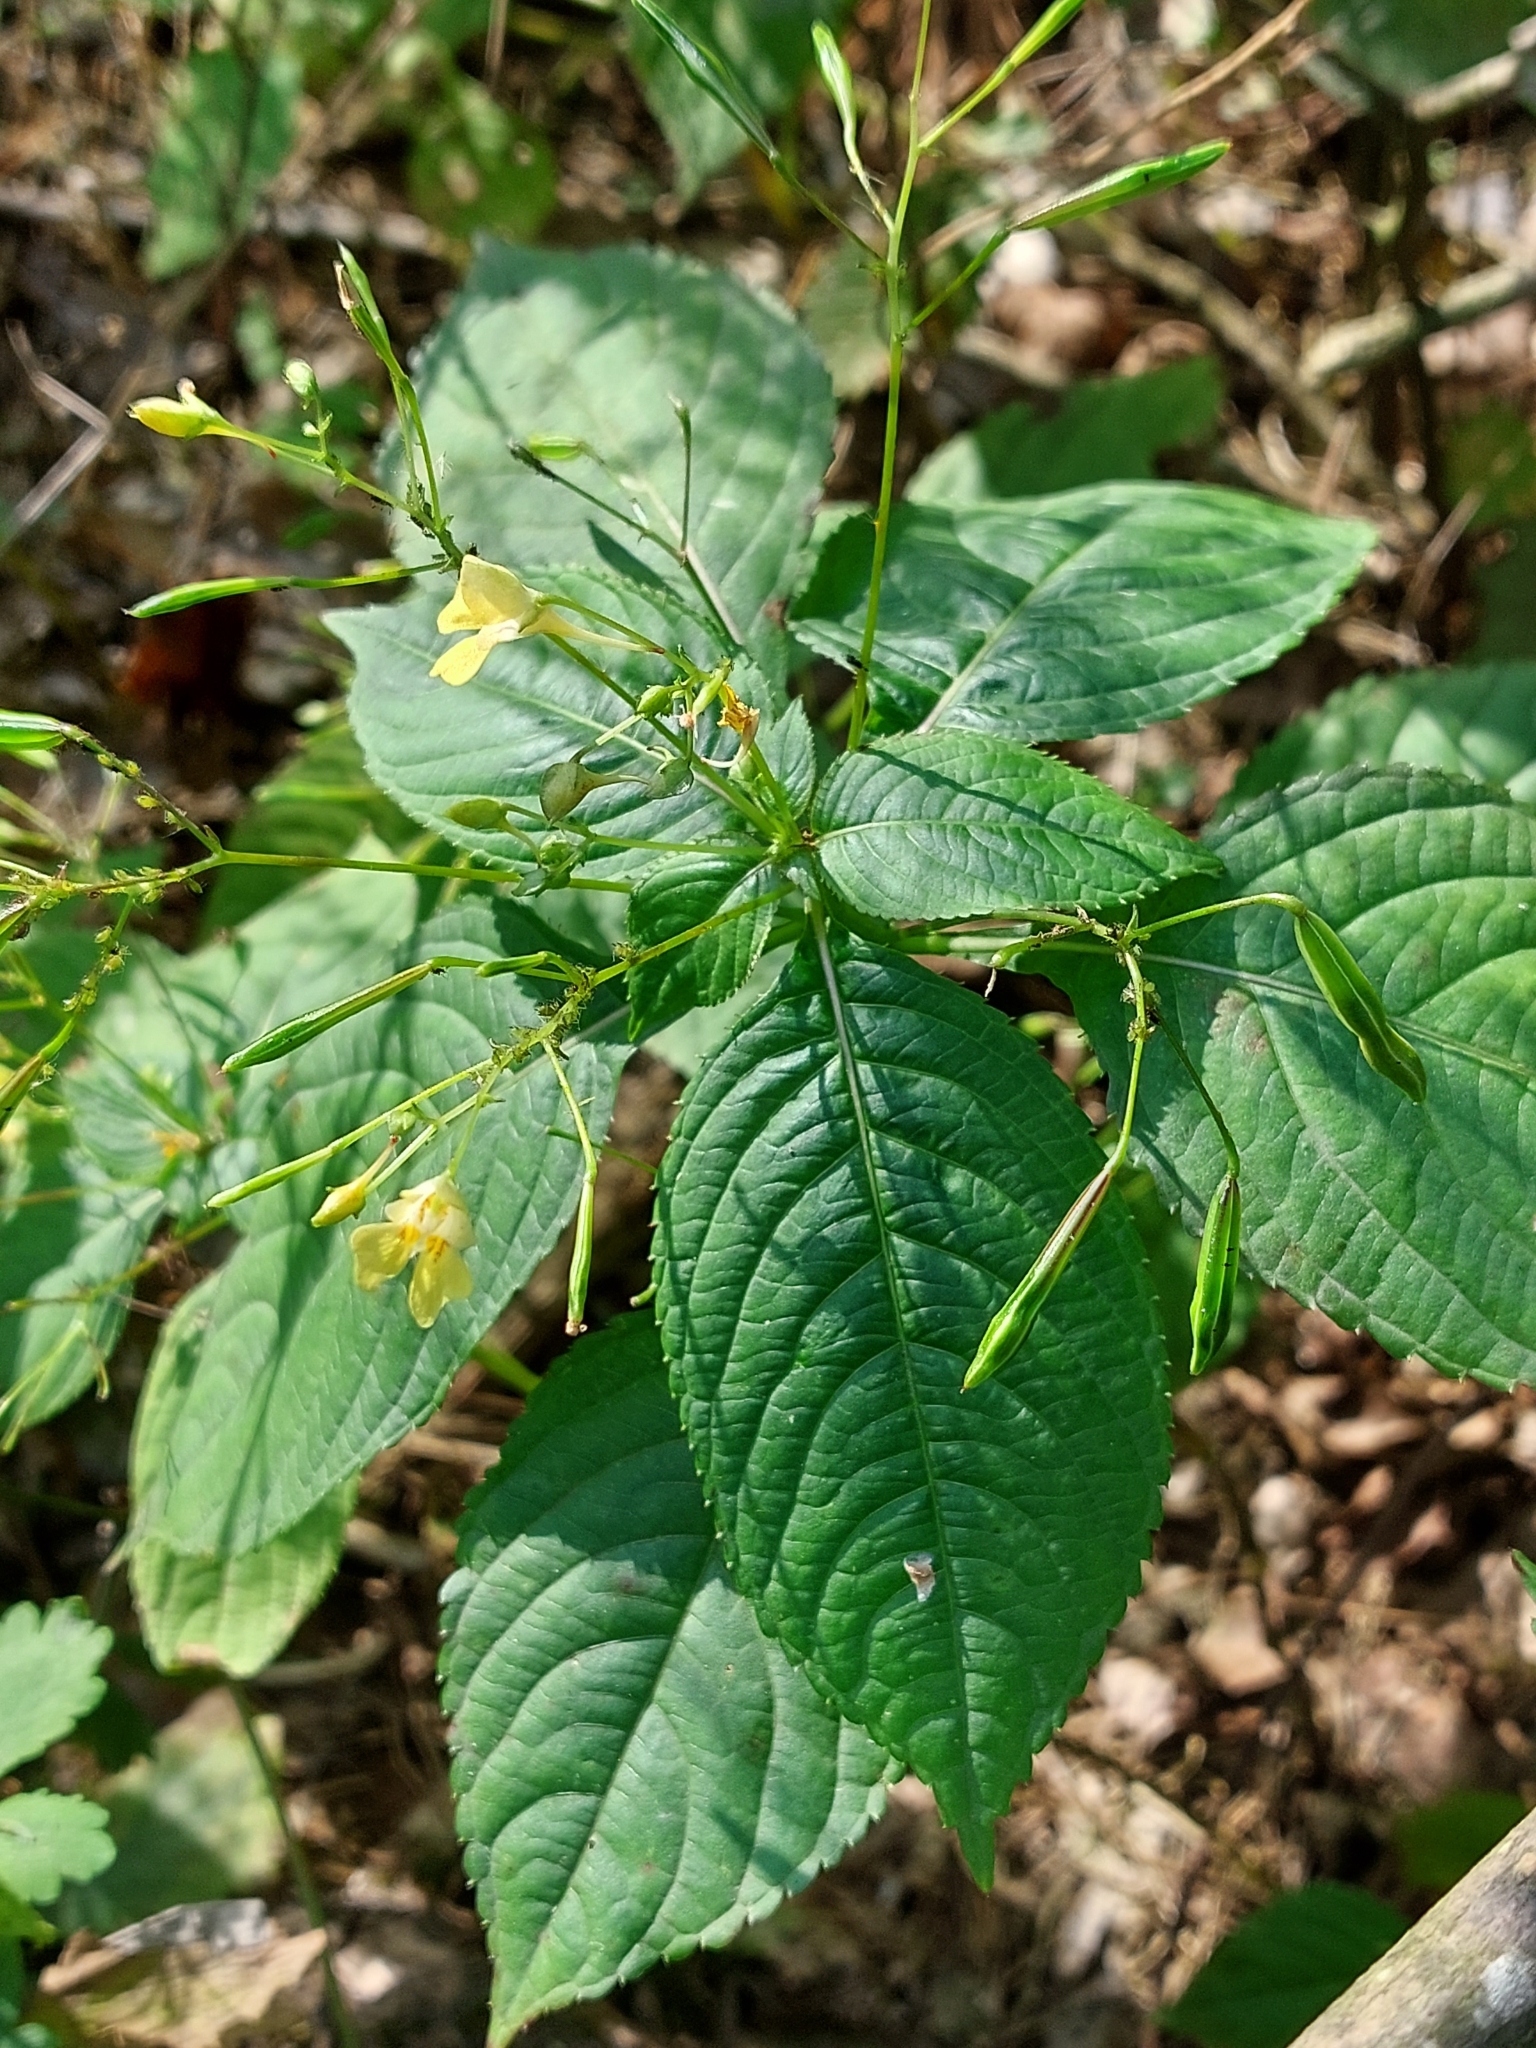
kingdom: Plantae
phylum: Tracheophyta
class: Magnoliopsida
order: Ericales
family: Balsaminaceae
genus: Impatiens
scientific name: Impatiens parviflora
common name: Small balsam
